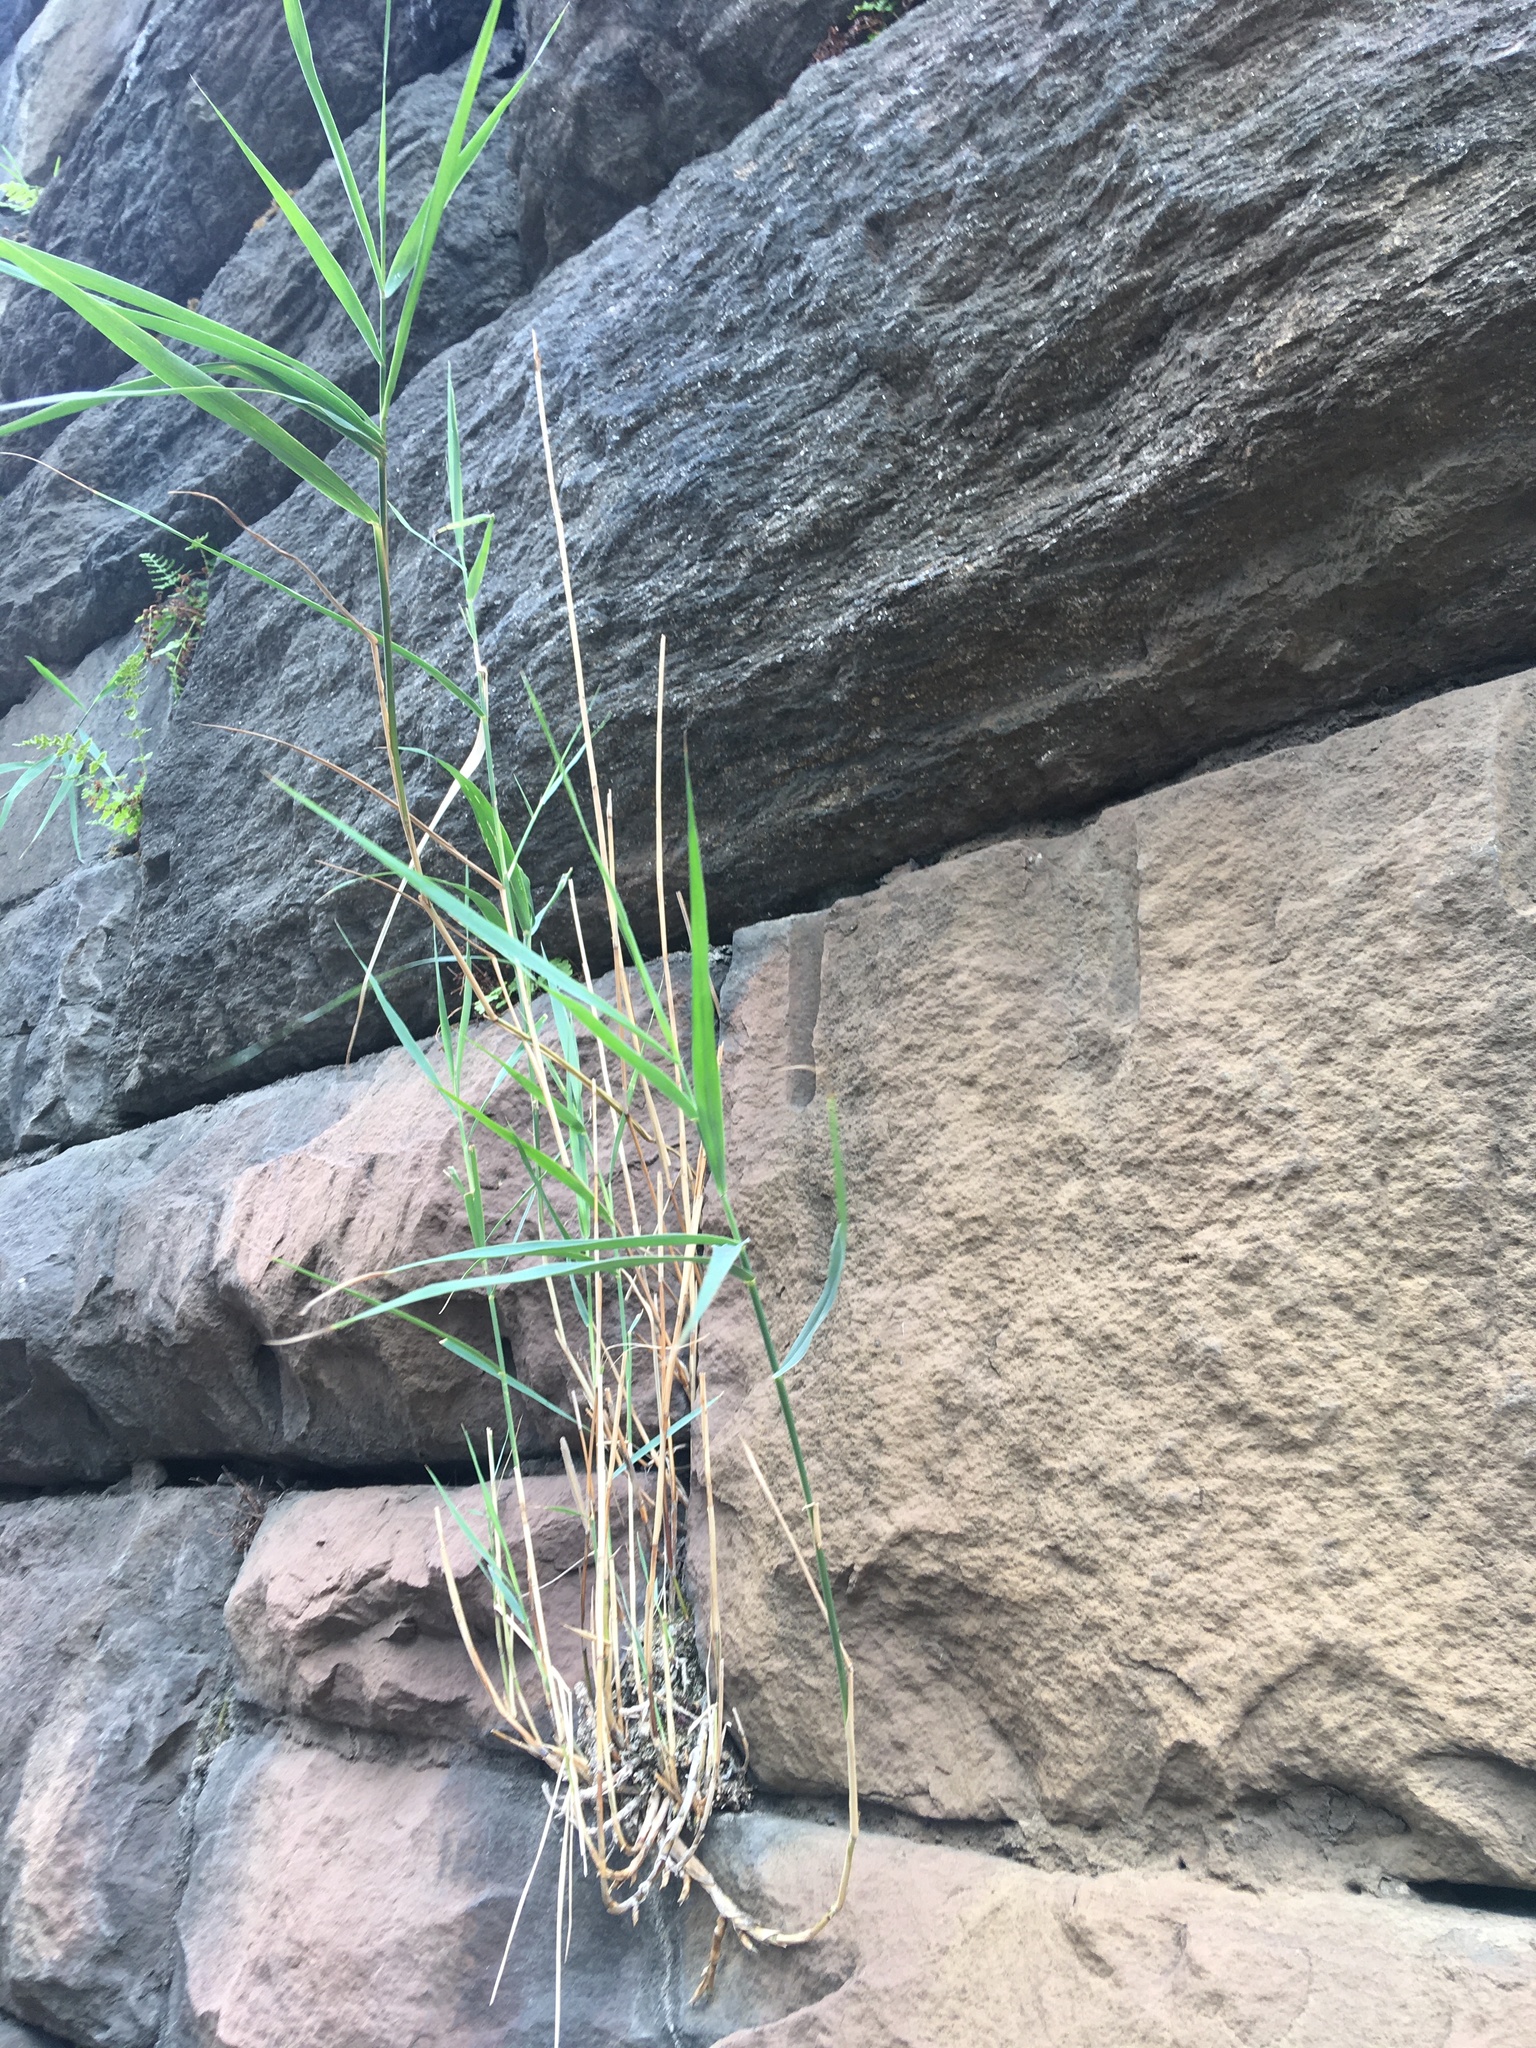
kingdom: Plantae
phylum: Tracheophyta
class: Liliopsida
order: Poales
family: Poaceae
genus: Phragmites
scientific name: Phragmites australis
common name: Common reed
